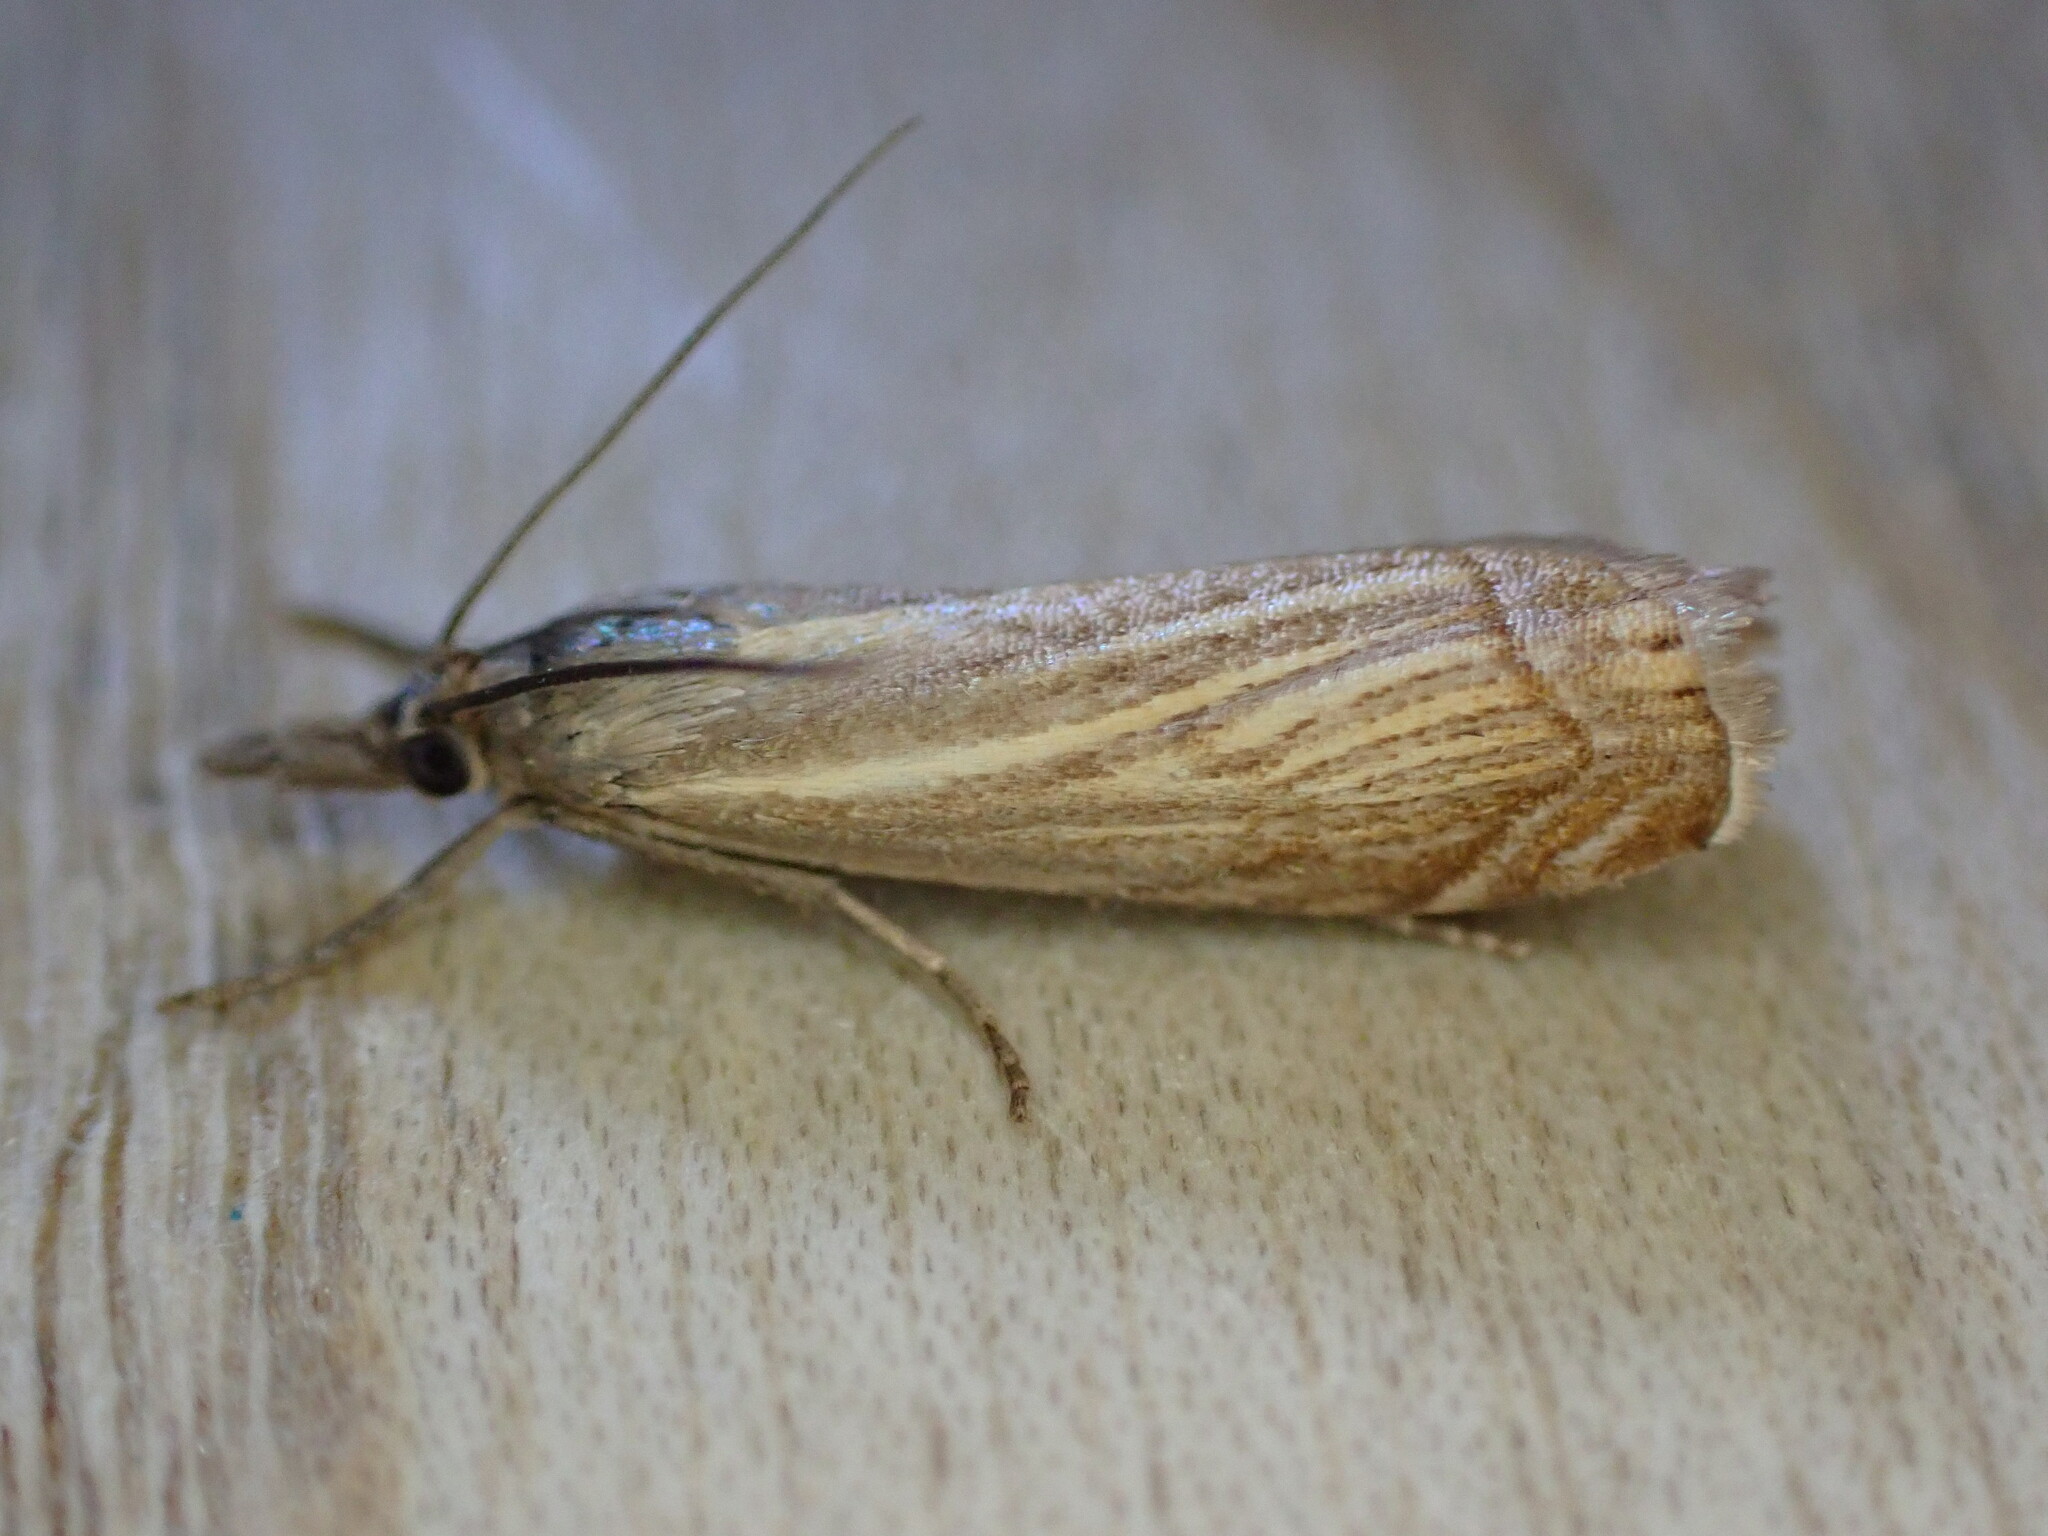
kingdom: Animalia
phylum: Arthropoda
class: Insecta
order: Lepidoptera
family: Crambidae
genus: Chrysoteuchia
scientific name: Chrysoteuchia culmella
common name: Garden grass-veneer
